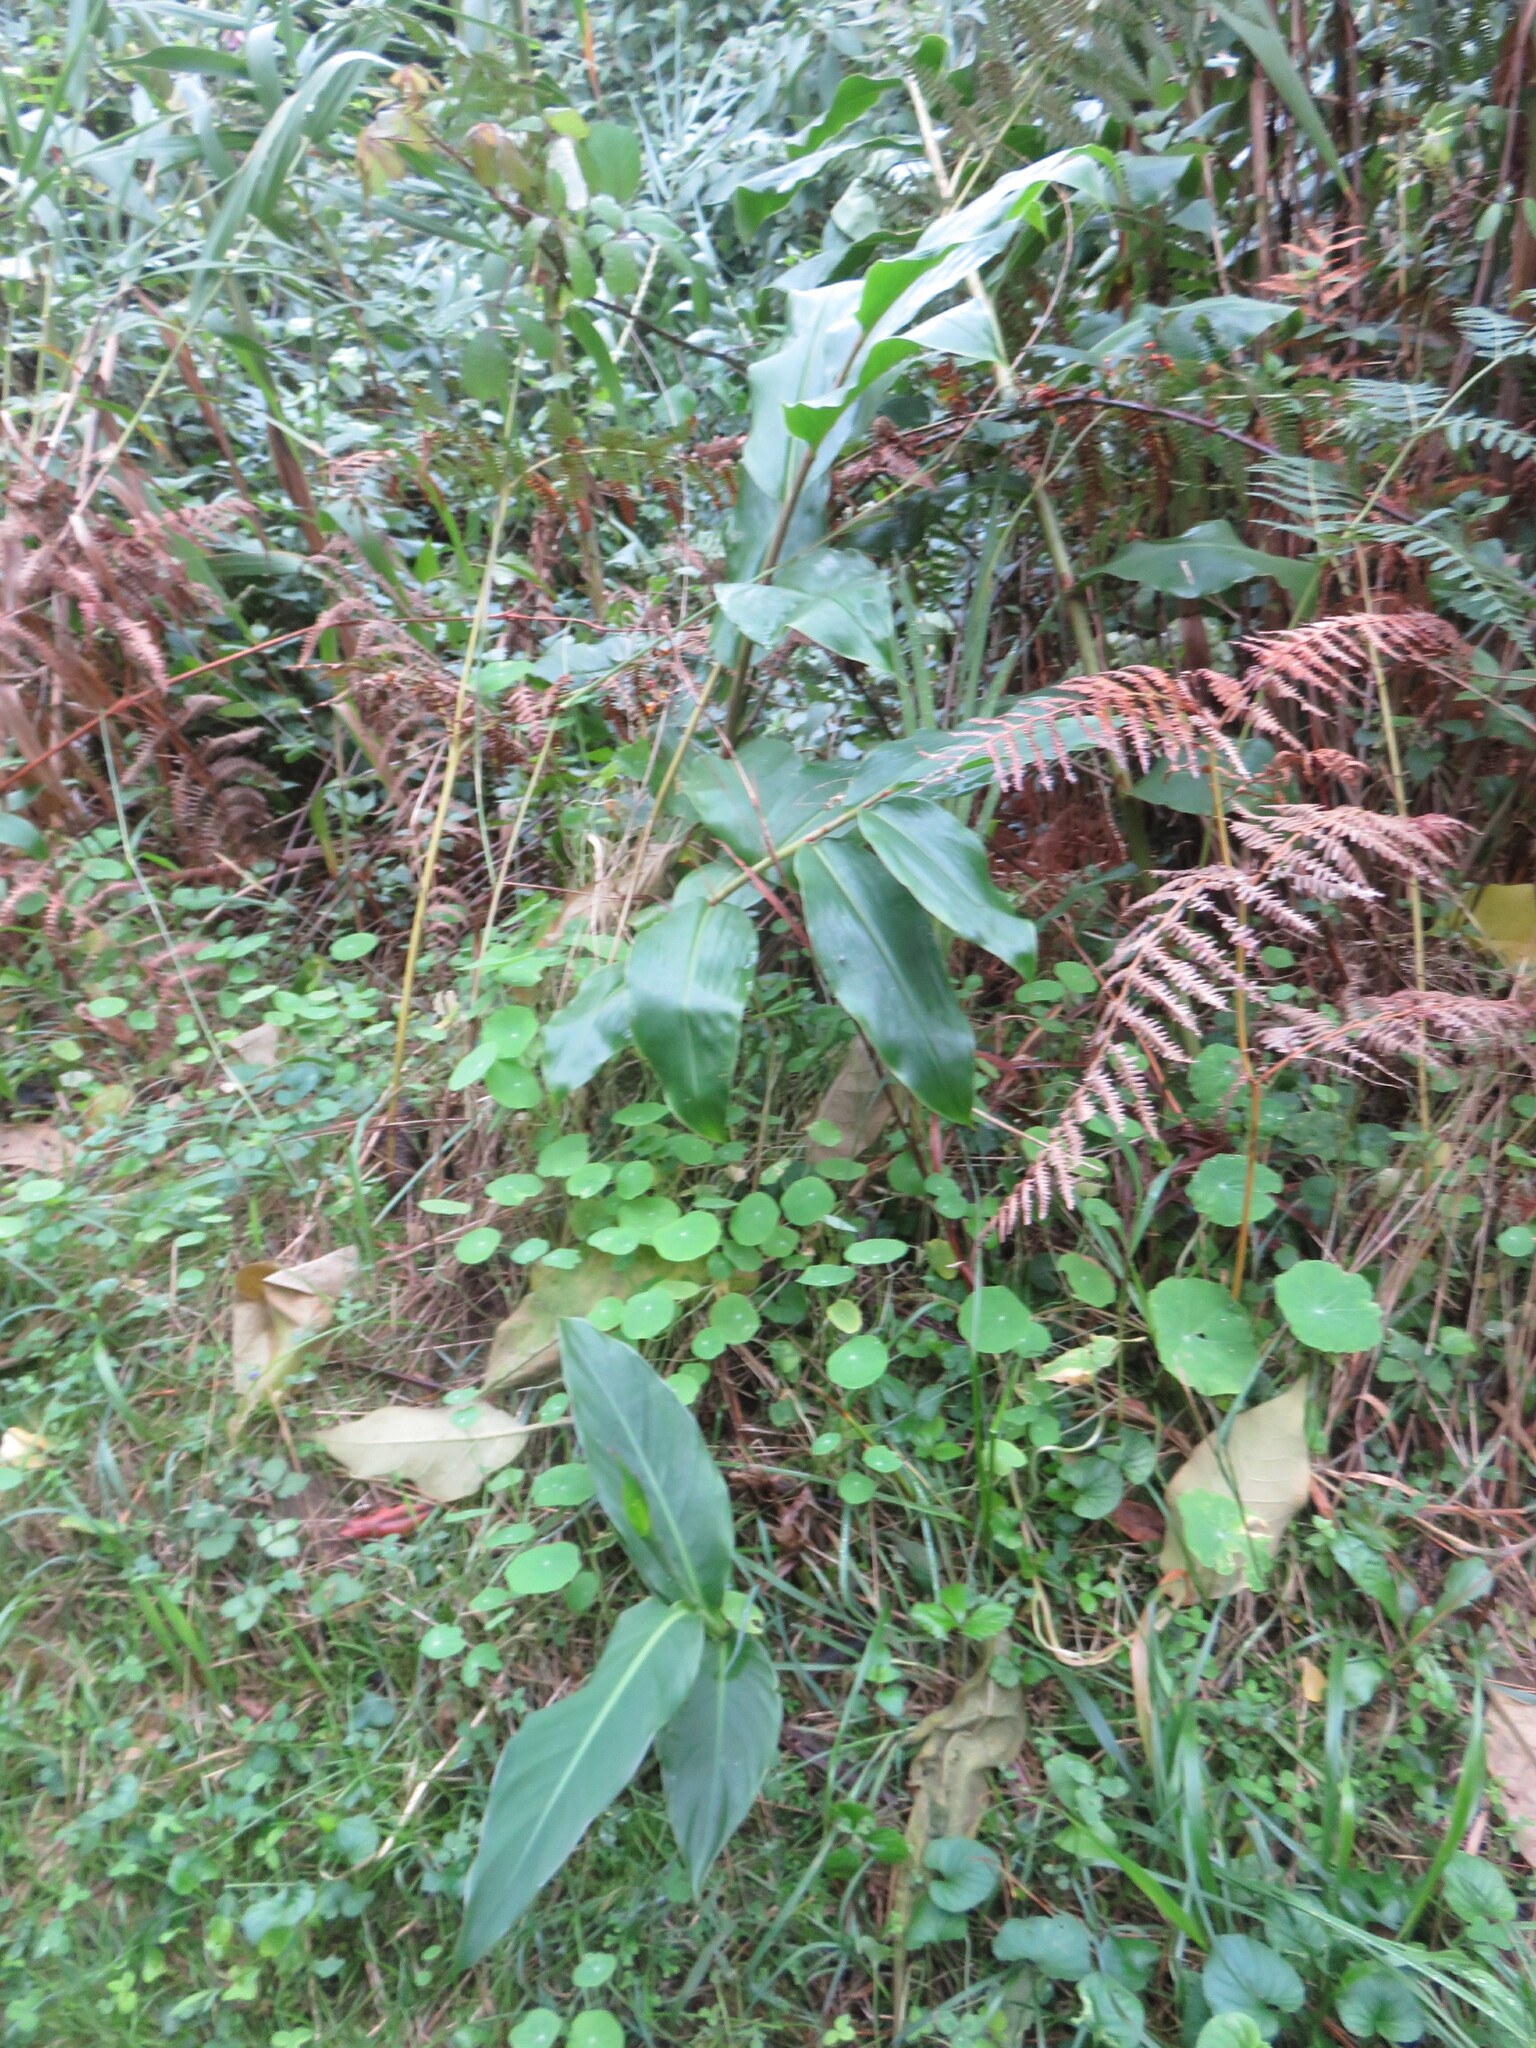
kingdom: Plantae
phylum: Tracheophyta
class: Liliopsida
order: Zingiberales
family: Zingiberaceae
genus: Hedychium
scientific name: Hedychium gardnerianum
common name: Himalayan ginger
